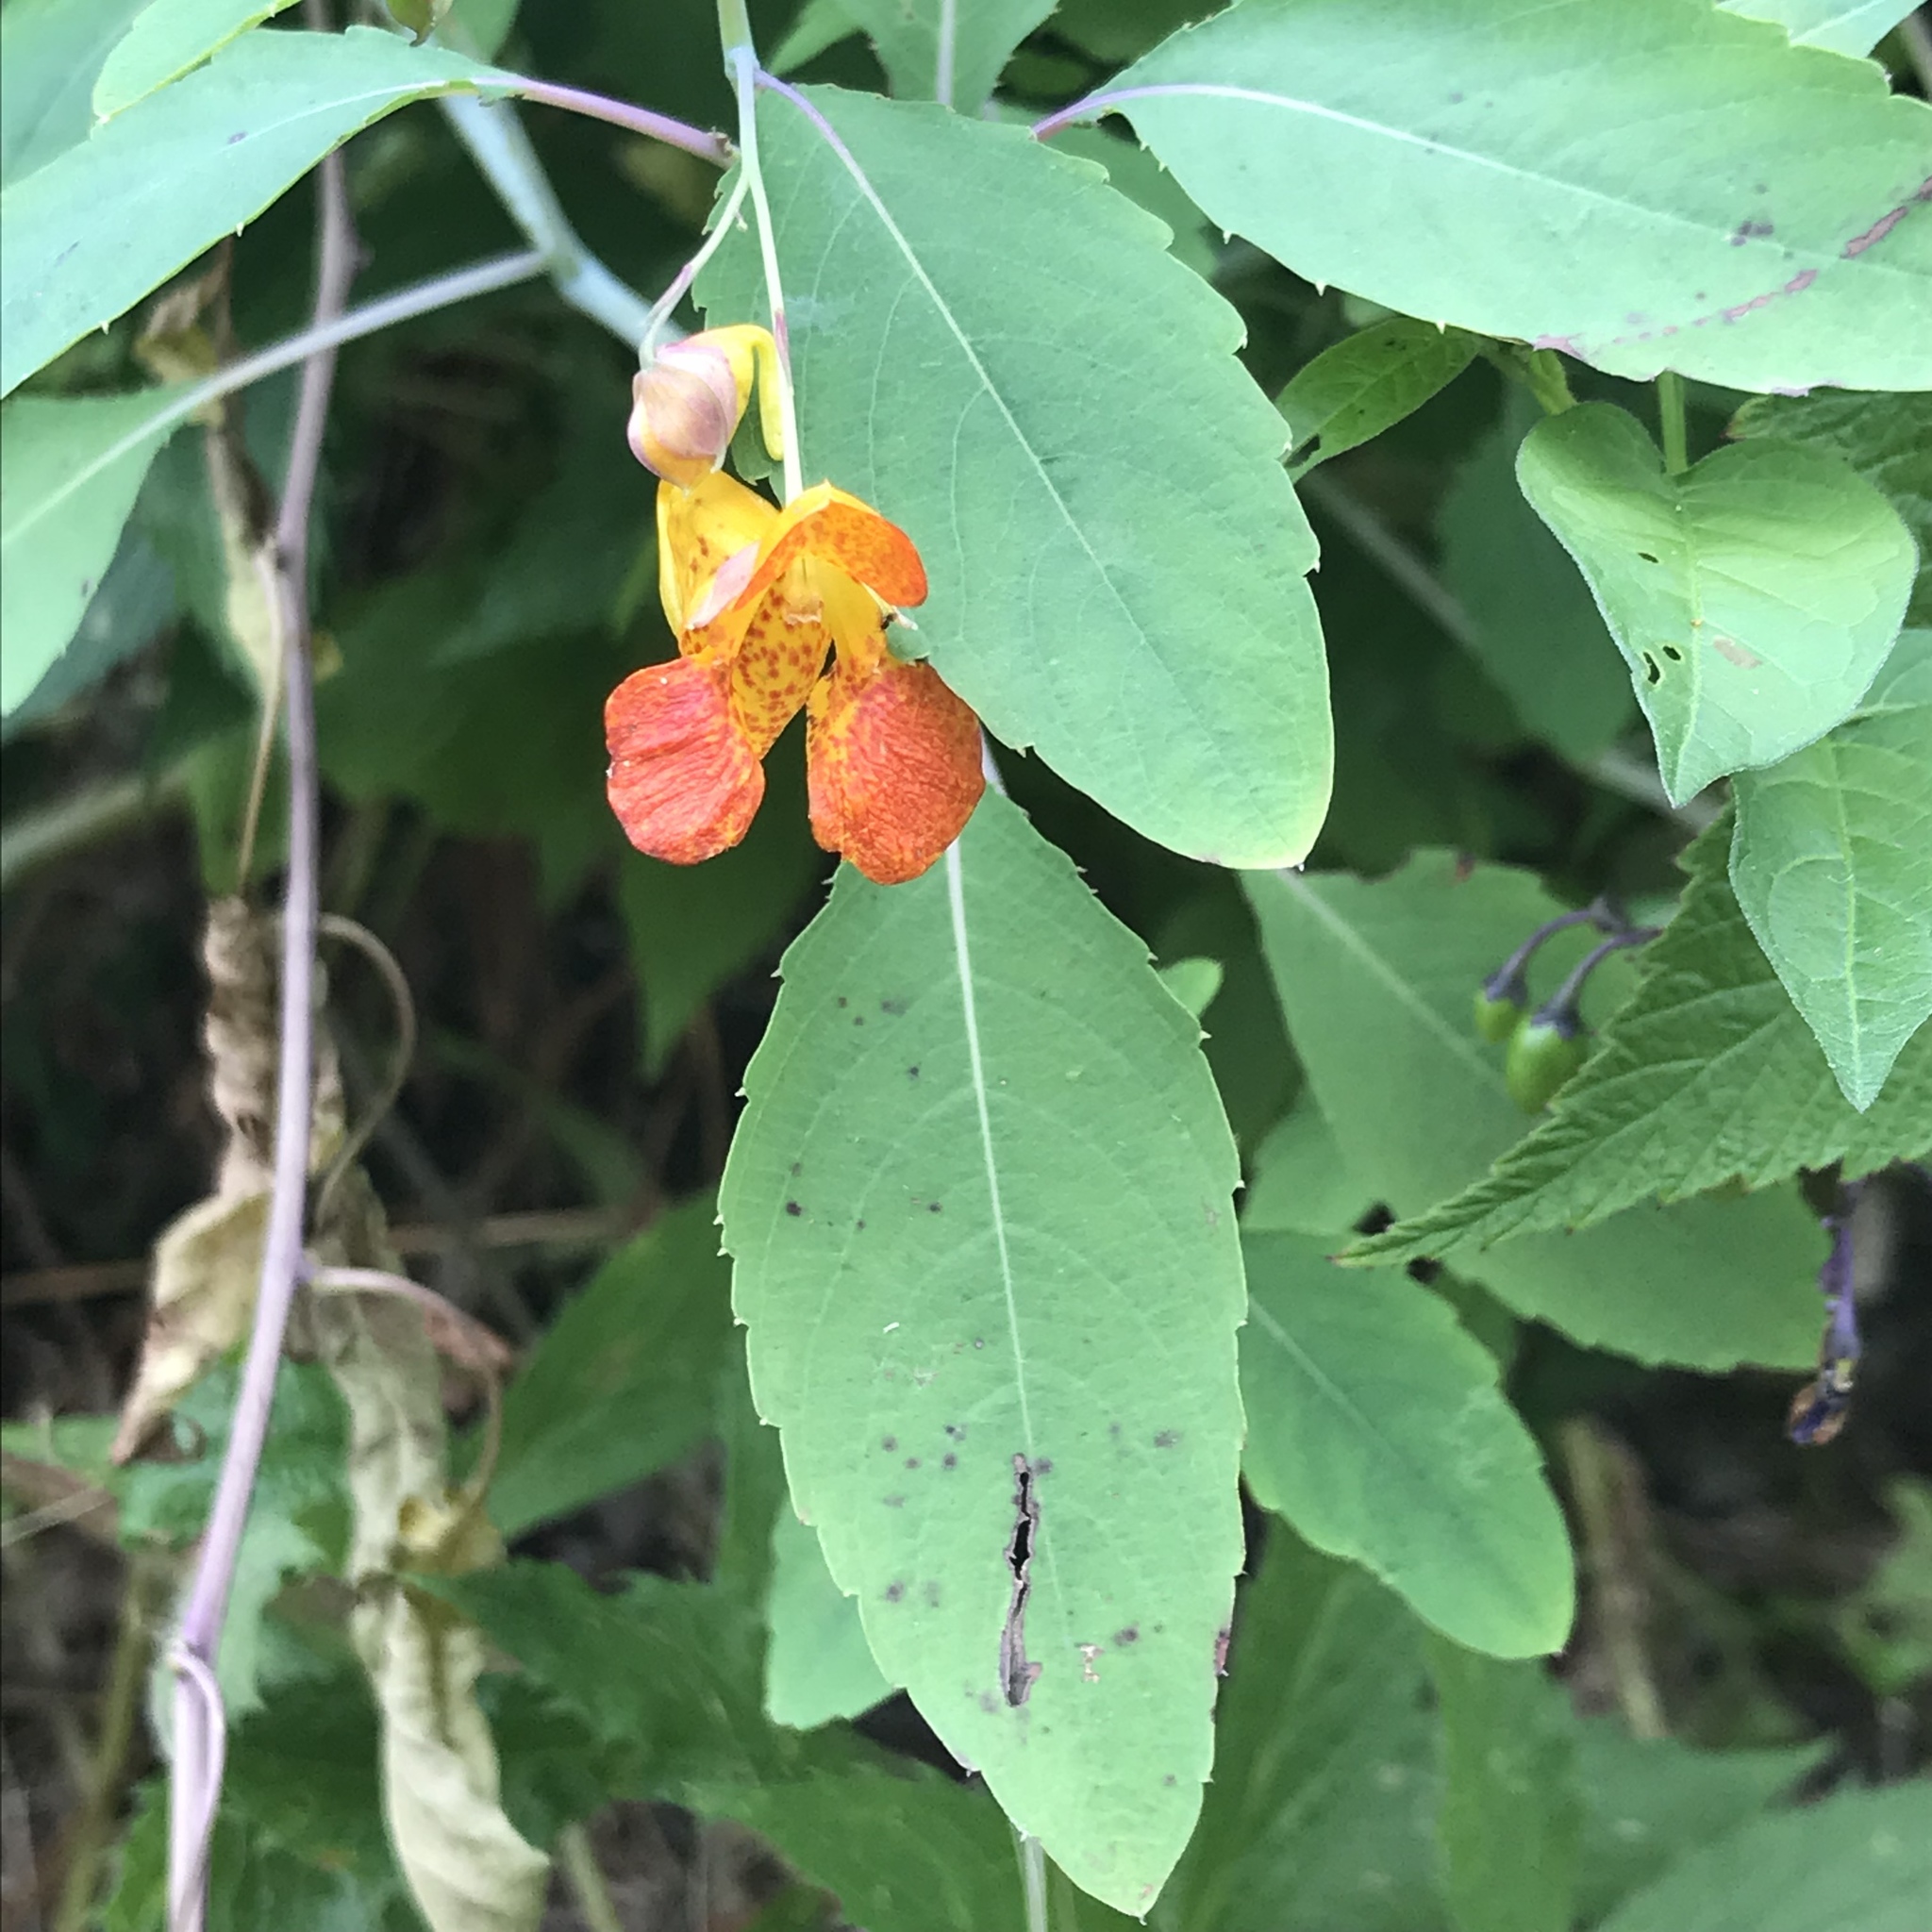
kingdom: Plantae
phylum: Tracheophyta
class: Magnoliopsida
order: Ericales
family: Balsaminaceae
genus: Impatiens
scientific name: Impatiens capensis
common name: Orange balsam
